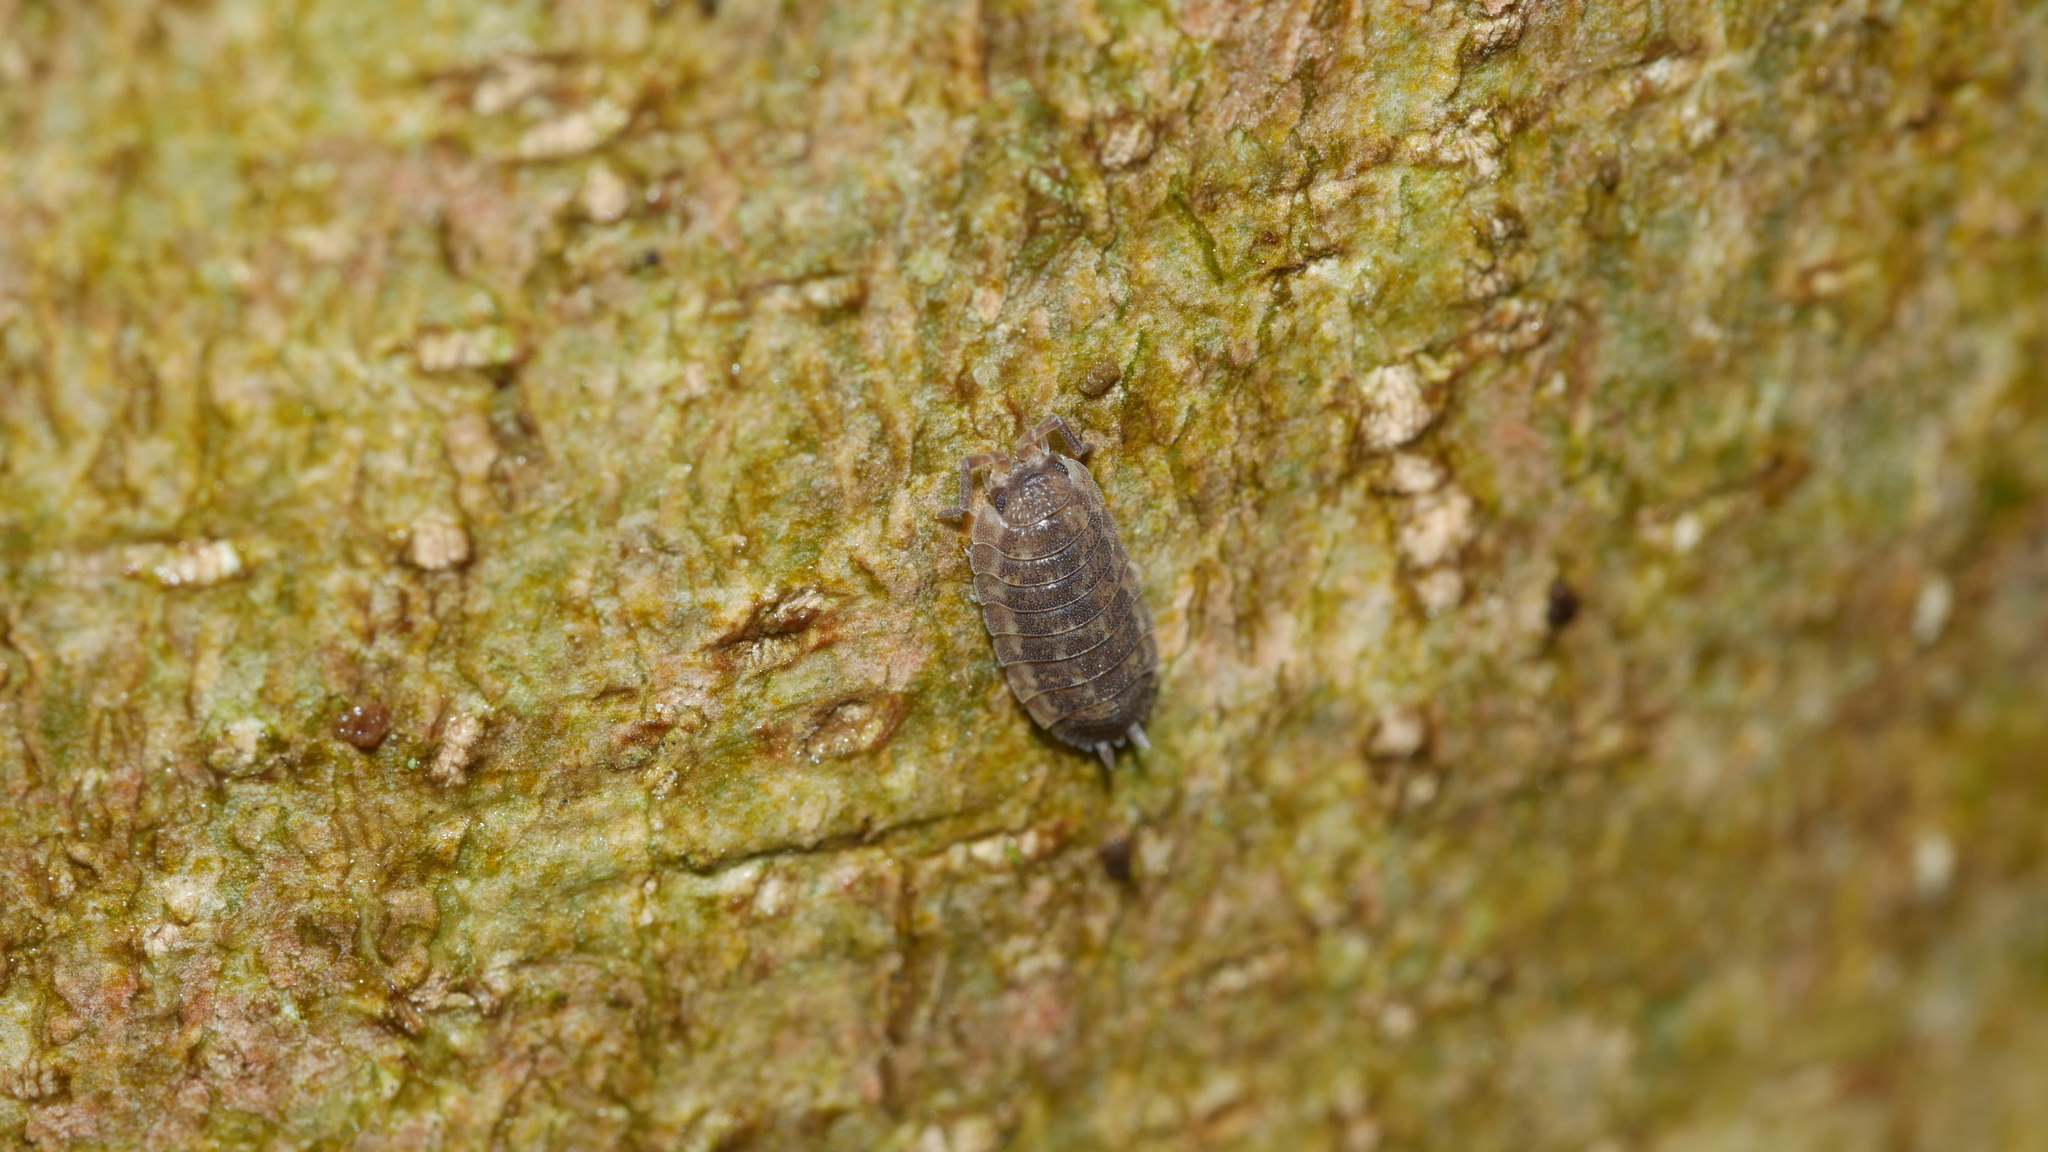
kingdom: Animalia
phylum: Arthropoda
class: Malacostraca
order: Isopoda
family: Porcellionidae
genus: Porcellio
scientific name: Porcellio scaber
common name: Common rough woodlouse
